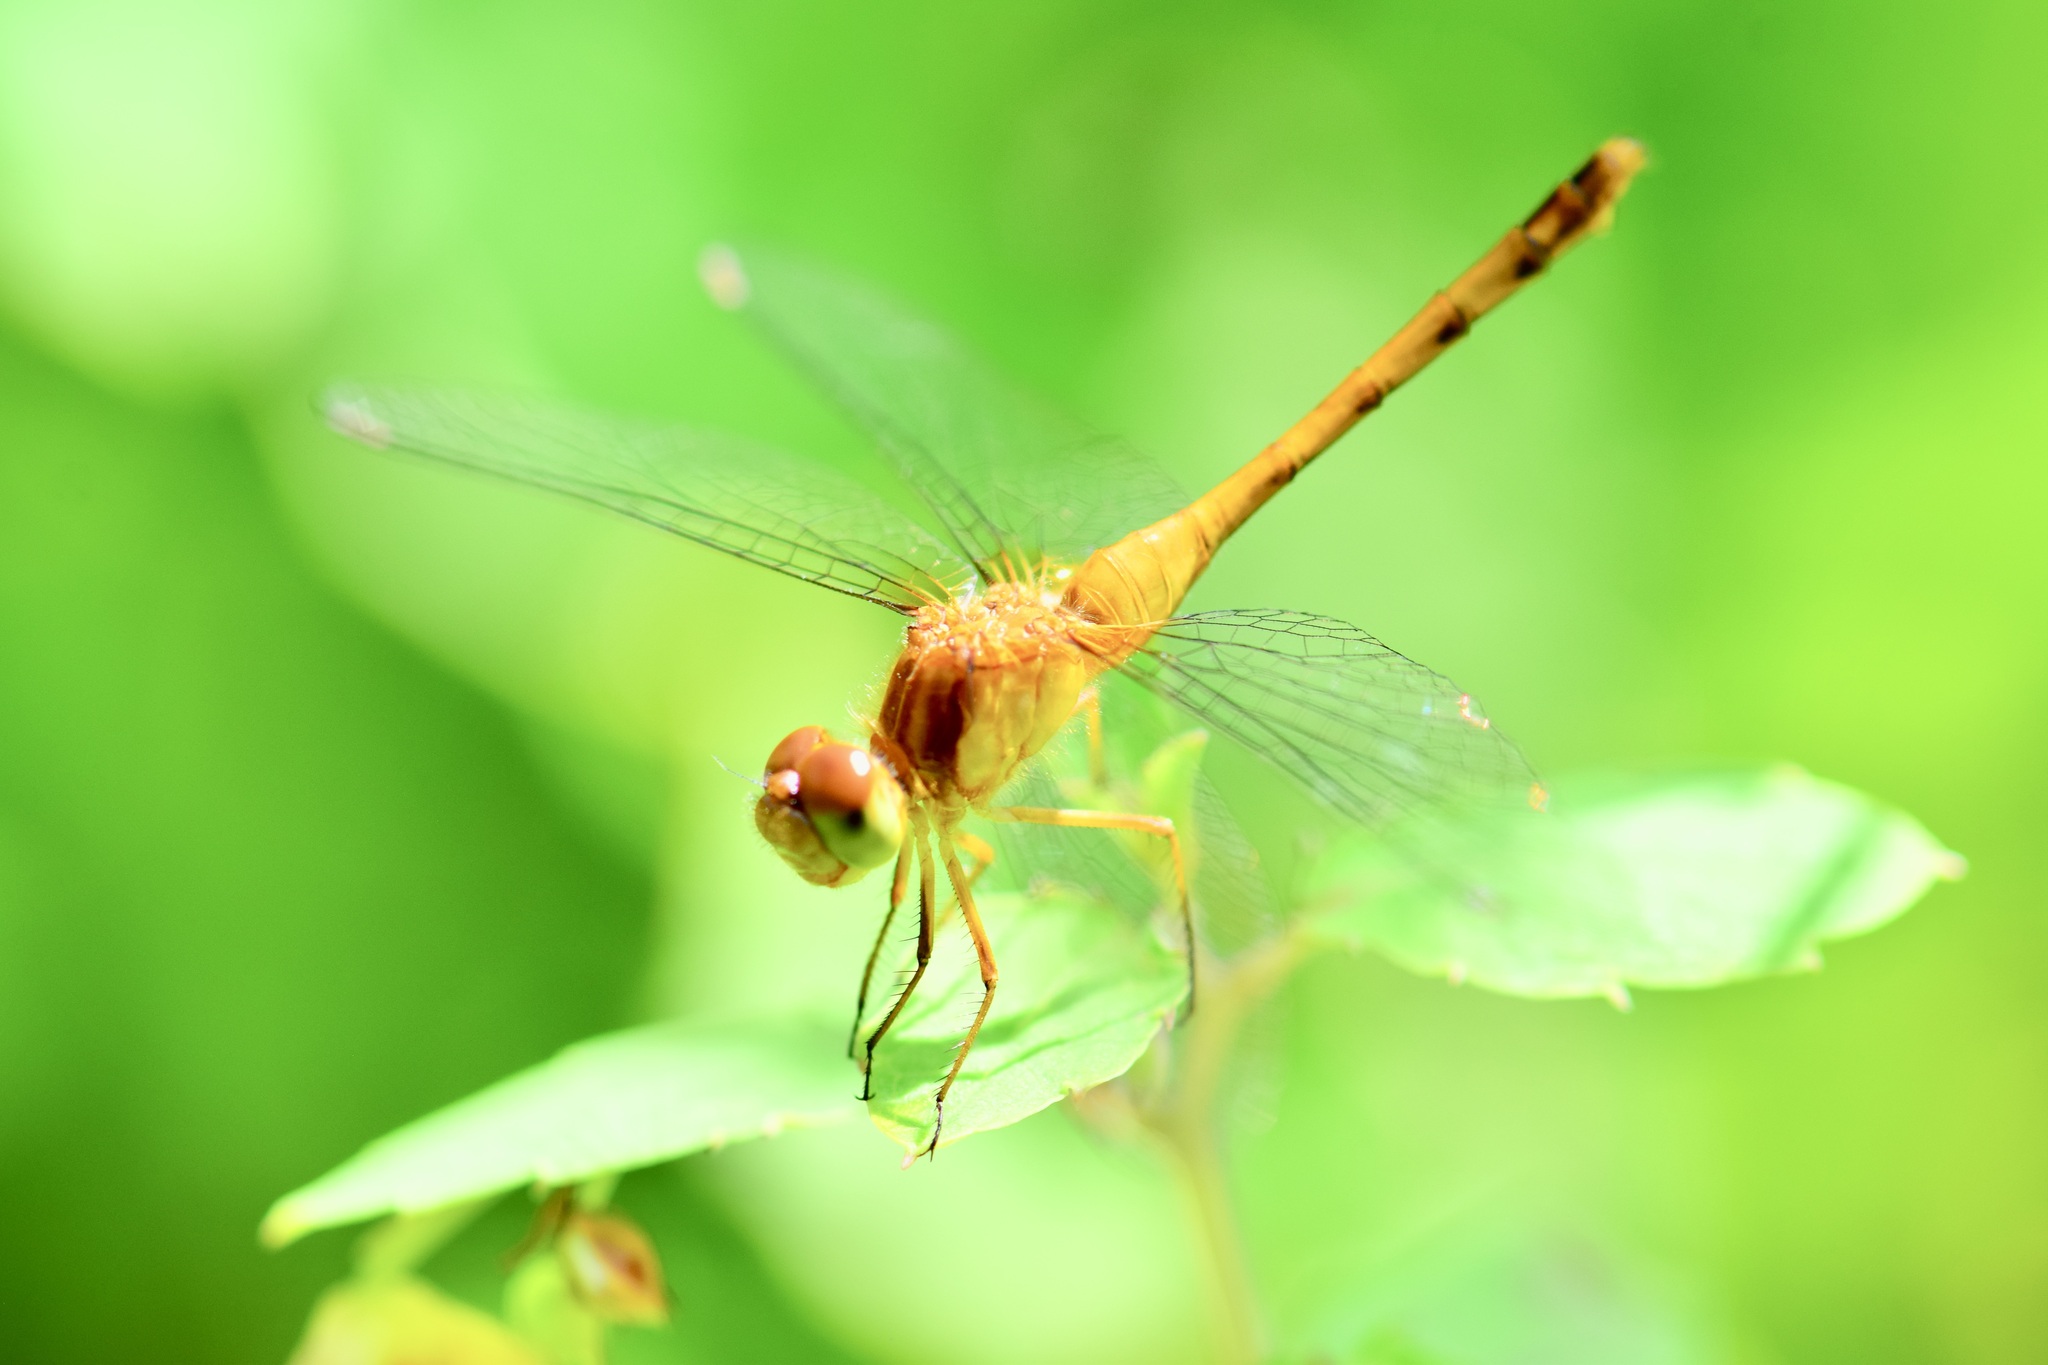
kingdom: Animalia
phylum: Arthropoda
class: Insecta
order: Odonata
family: Libellulidae
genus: Sympetrum
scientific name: Sympetrum vicinum
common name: Autumn meadowhawk
